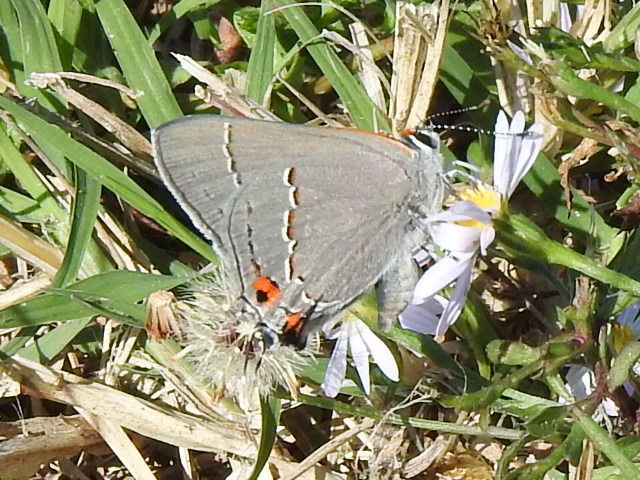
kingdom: Animalia
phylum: Arthropoda
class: Insecta
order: Lepidoptera
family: Lycaenidae
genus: Strymon
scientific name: Strymon melinus
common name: Gray hairstreak
